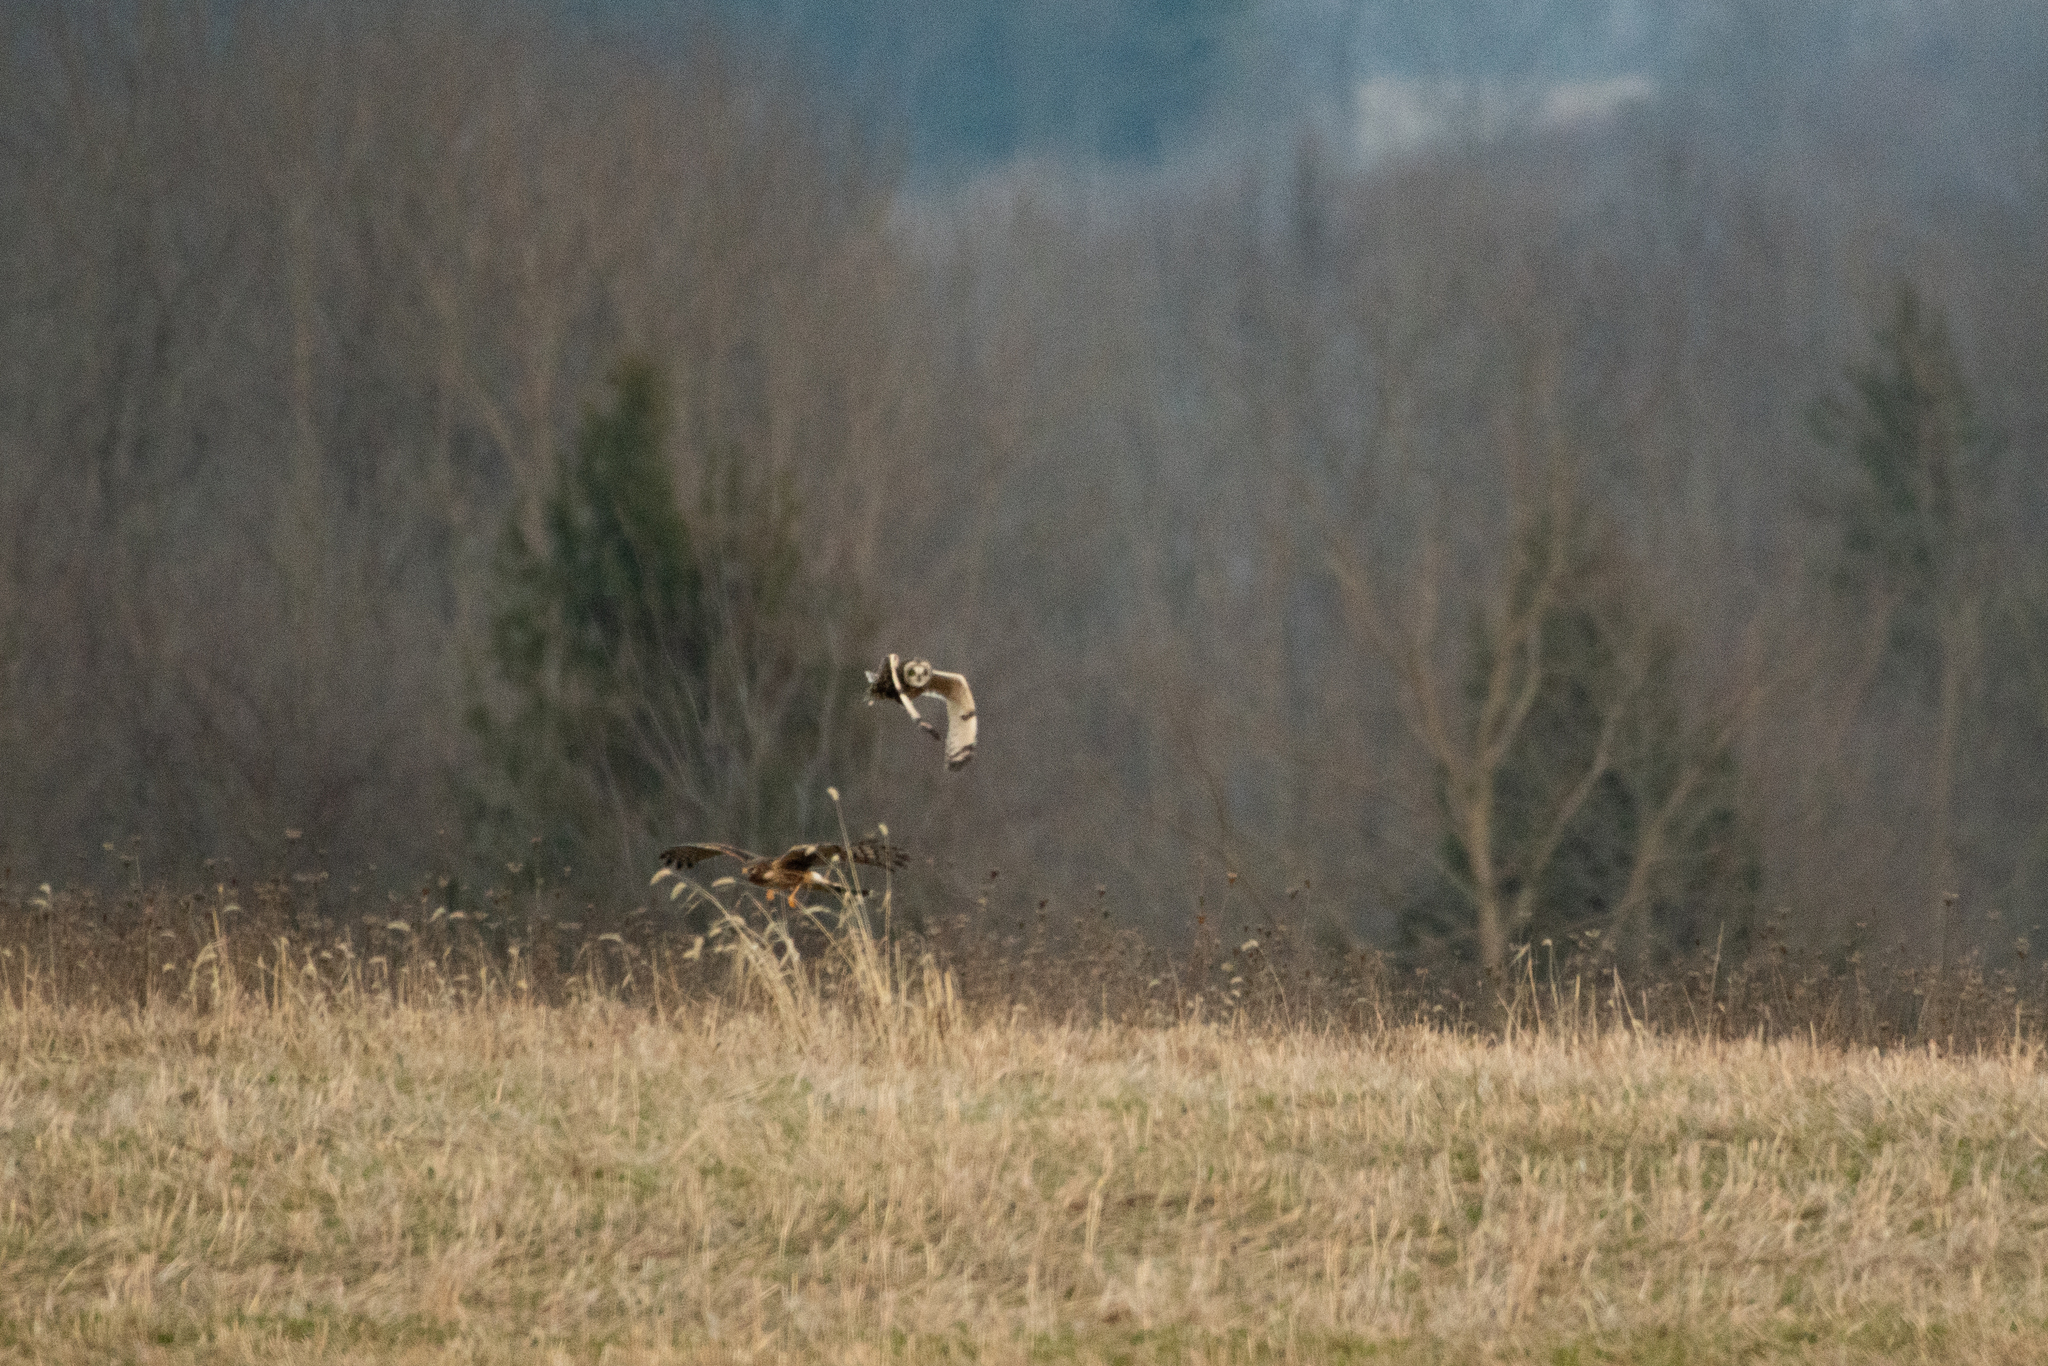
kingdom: Animalia
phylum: Chordata
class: Aves
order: Strigiformes
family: Strigidae
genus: Asio
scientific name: Asio flammeus
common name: Short-eared owl
